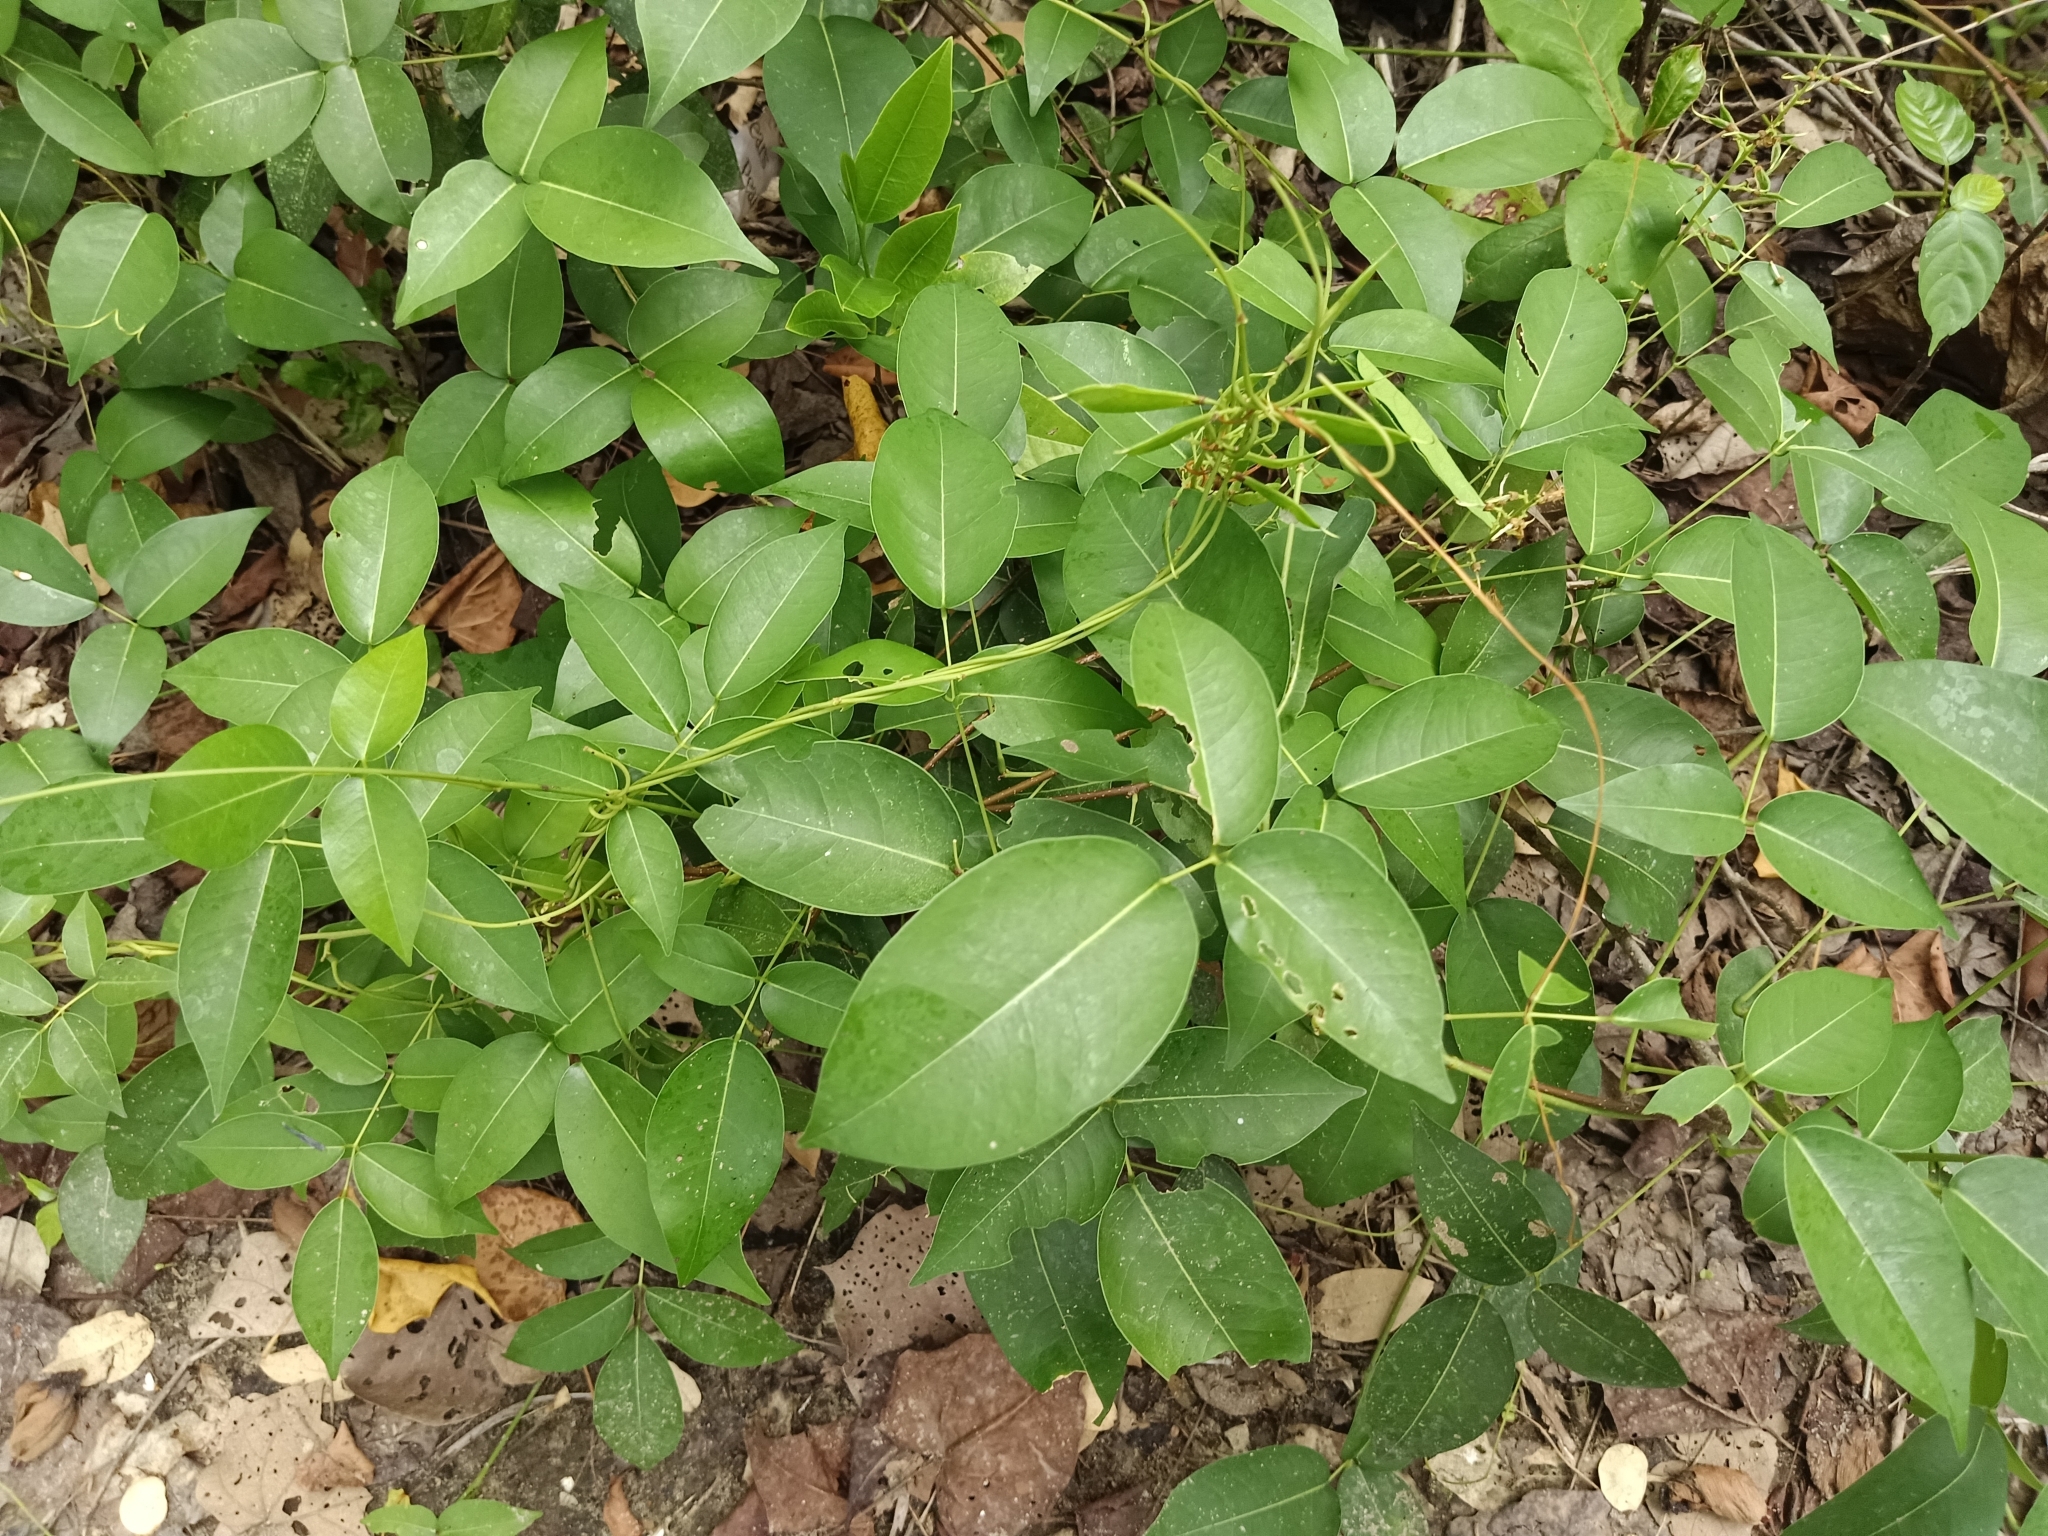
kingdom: Plantae
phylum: Tracheophyta
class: Magnoliopsida
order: Fabales
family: Fabaceae
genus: Derris
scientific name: Derris trifoliata
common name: Three-leaf derris
